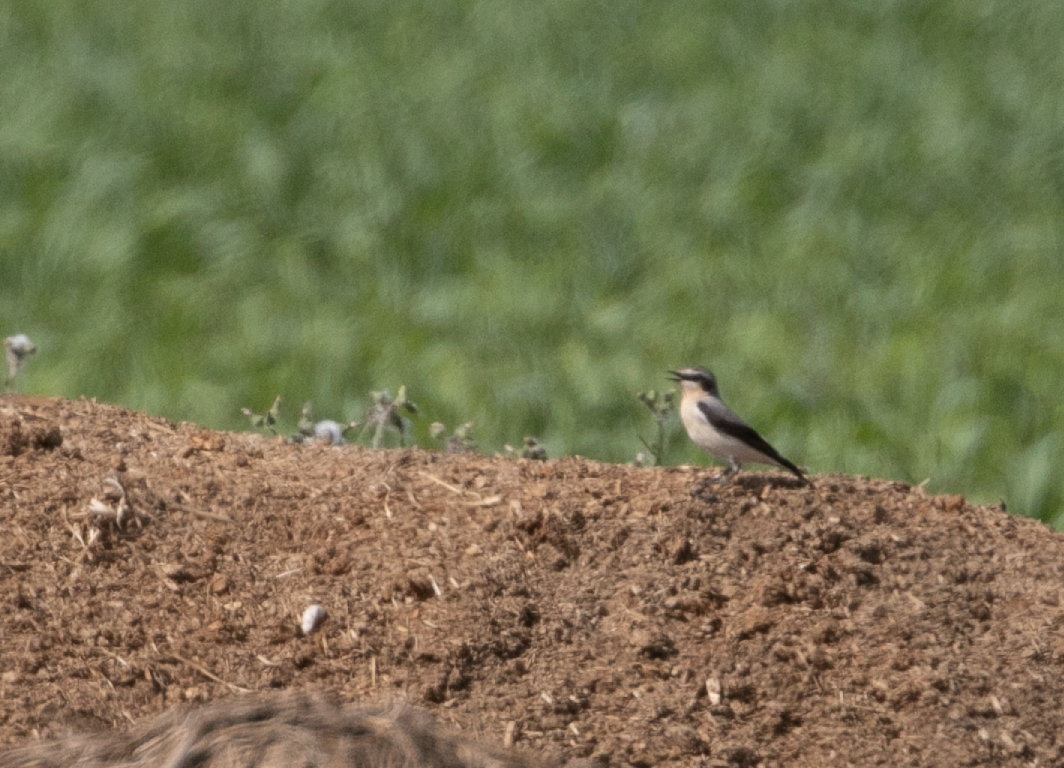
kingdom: Animalia
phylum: Chordata
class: Aves
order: Passeriformes
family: Muscicapidae
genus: Oenanthe
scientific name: Oenanthe oenanthe
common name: Northern wheatear
